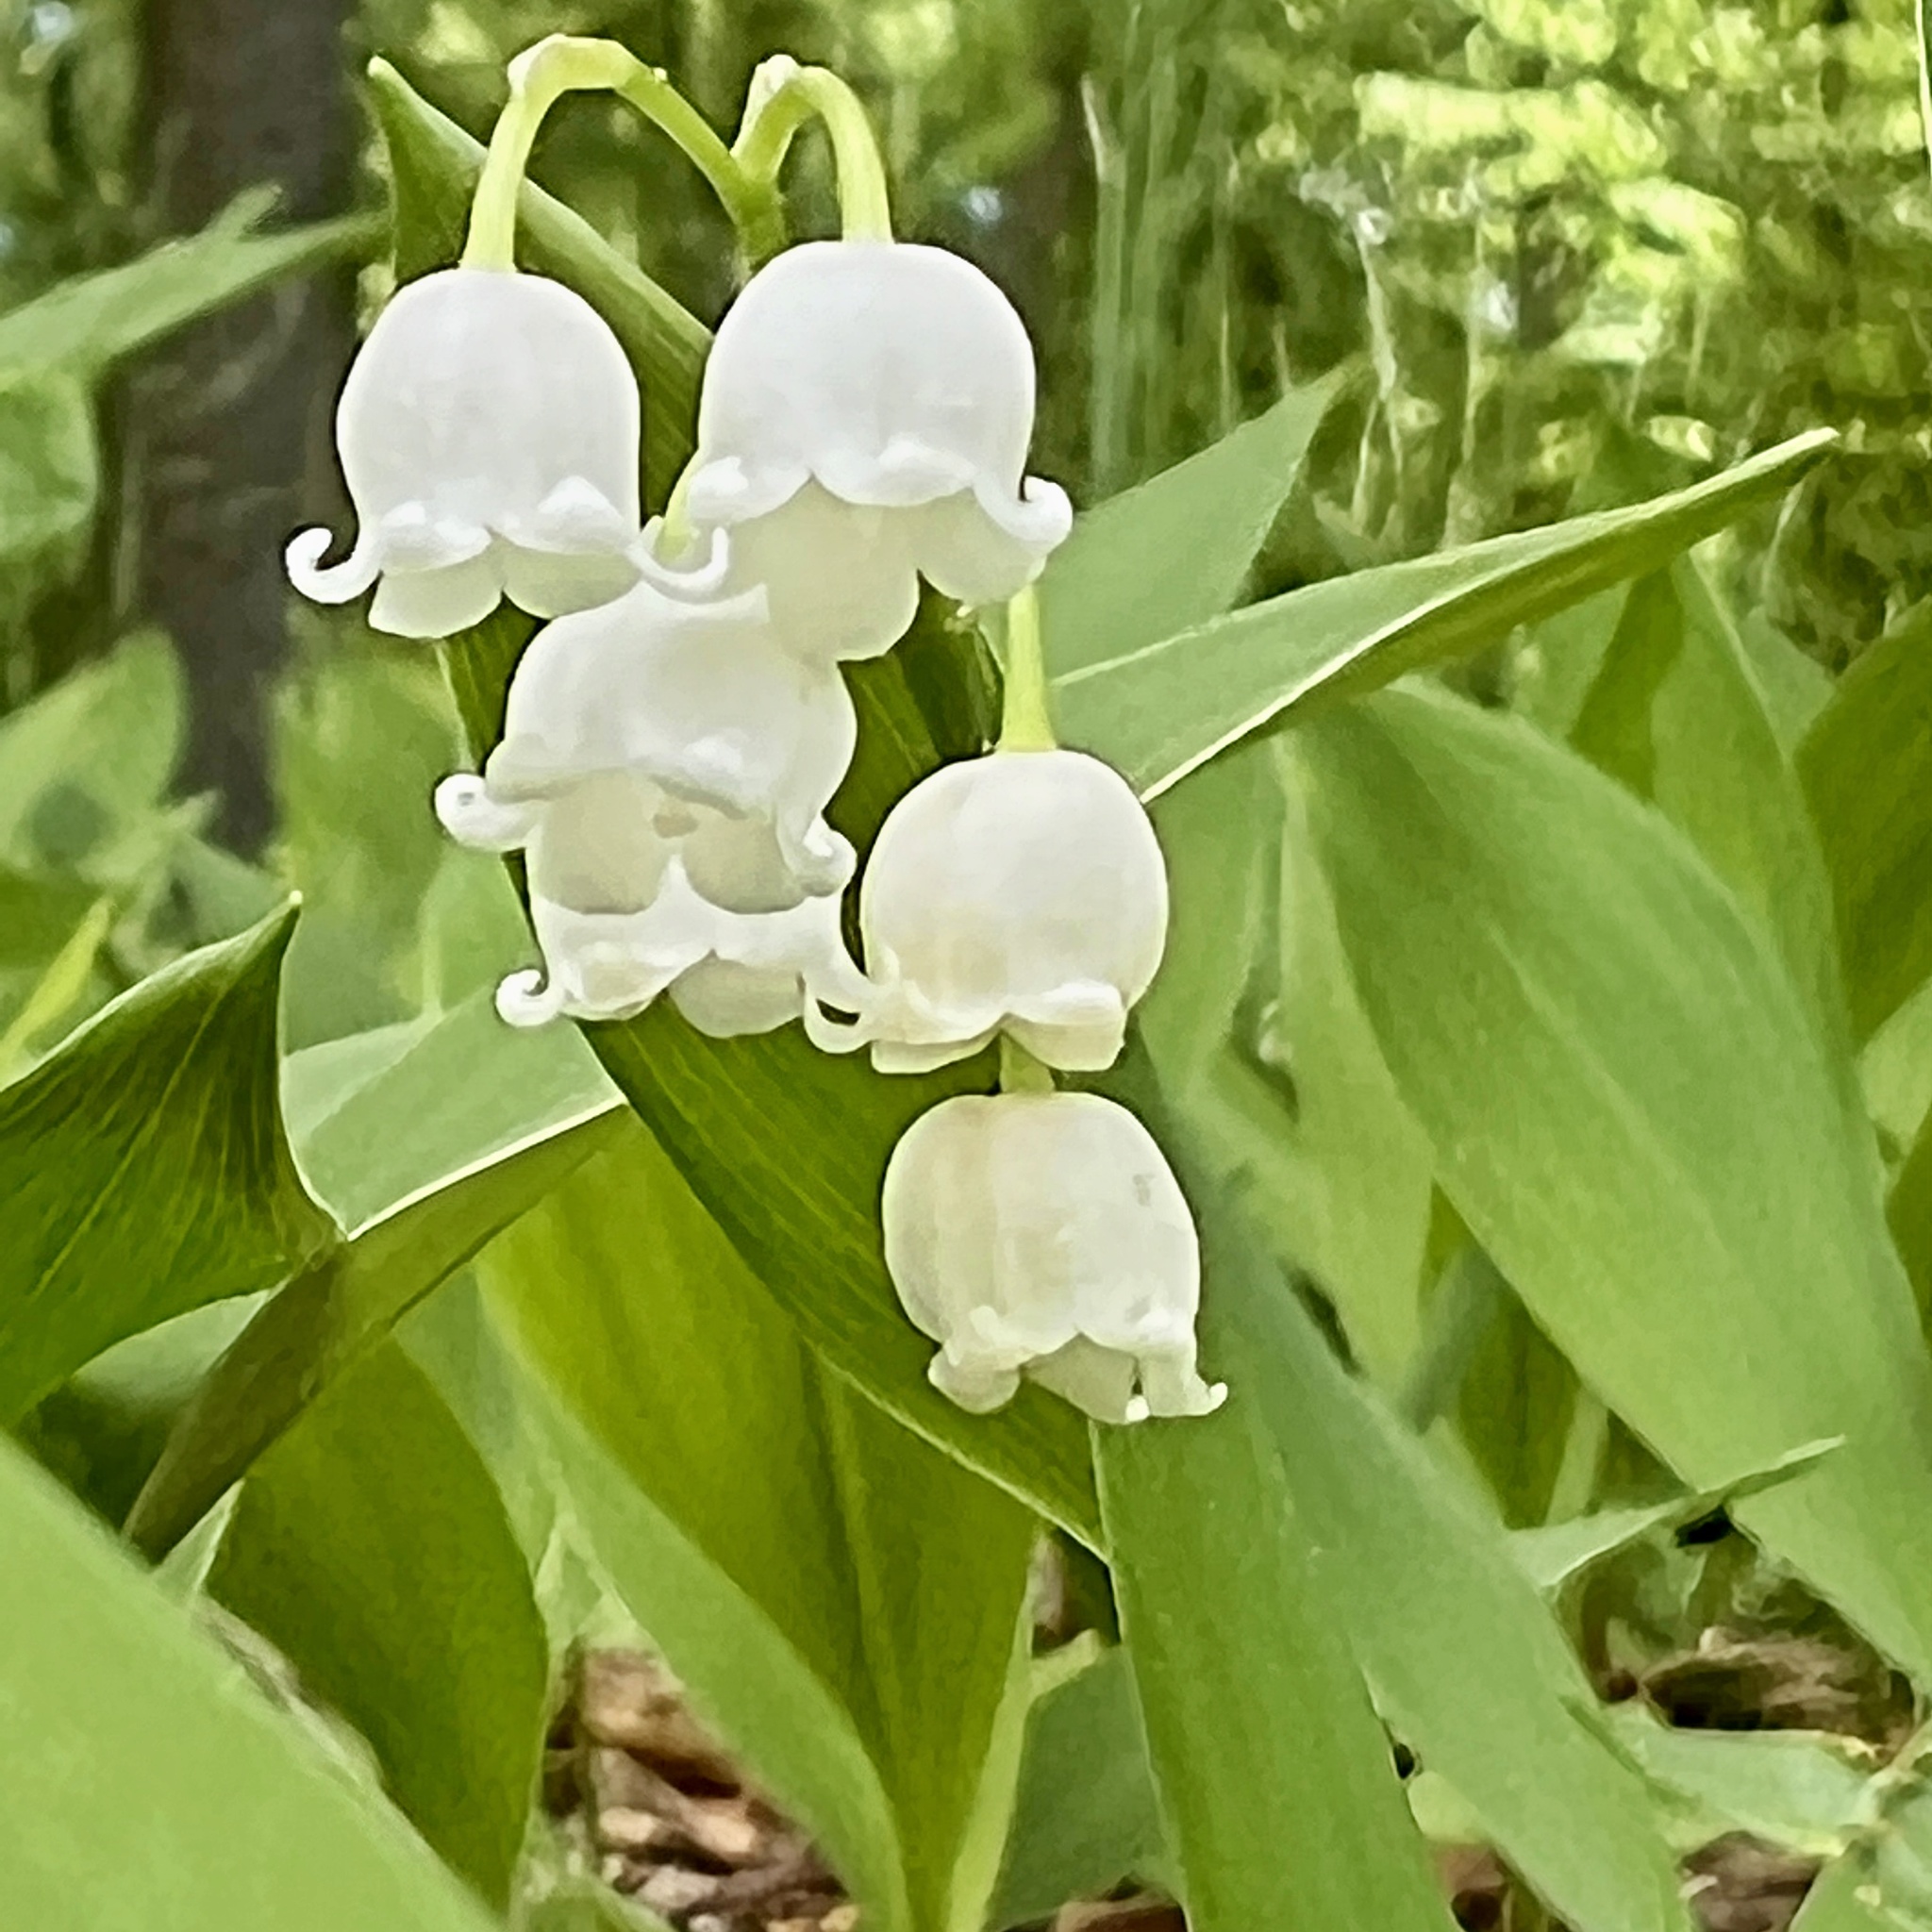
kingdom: Plantae
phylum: Tracheophyta
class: Liliopsida
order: Asparagales
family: Asparagaceae
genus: Convallaria
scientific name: Convallaria majalis
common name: Lily-of-the-valley
